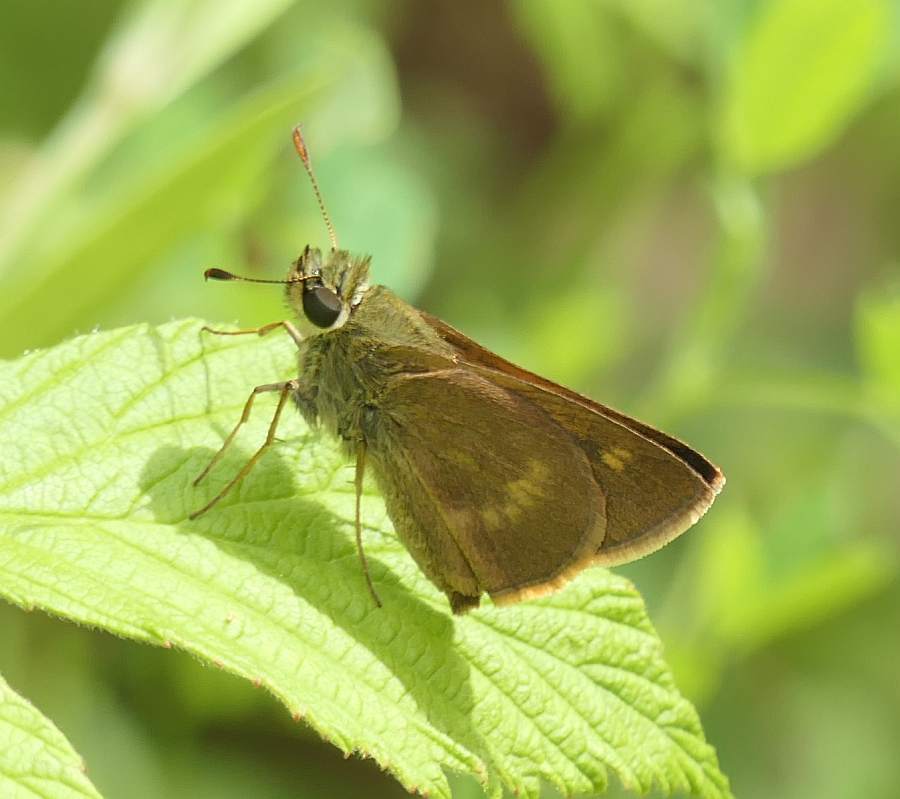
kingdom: Animalia
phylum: Arthropoda
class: Insecta
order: Lepidoptera
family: Hesperiidae
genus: Polites
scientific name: Polites egeremet
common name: Northern broken-dash
